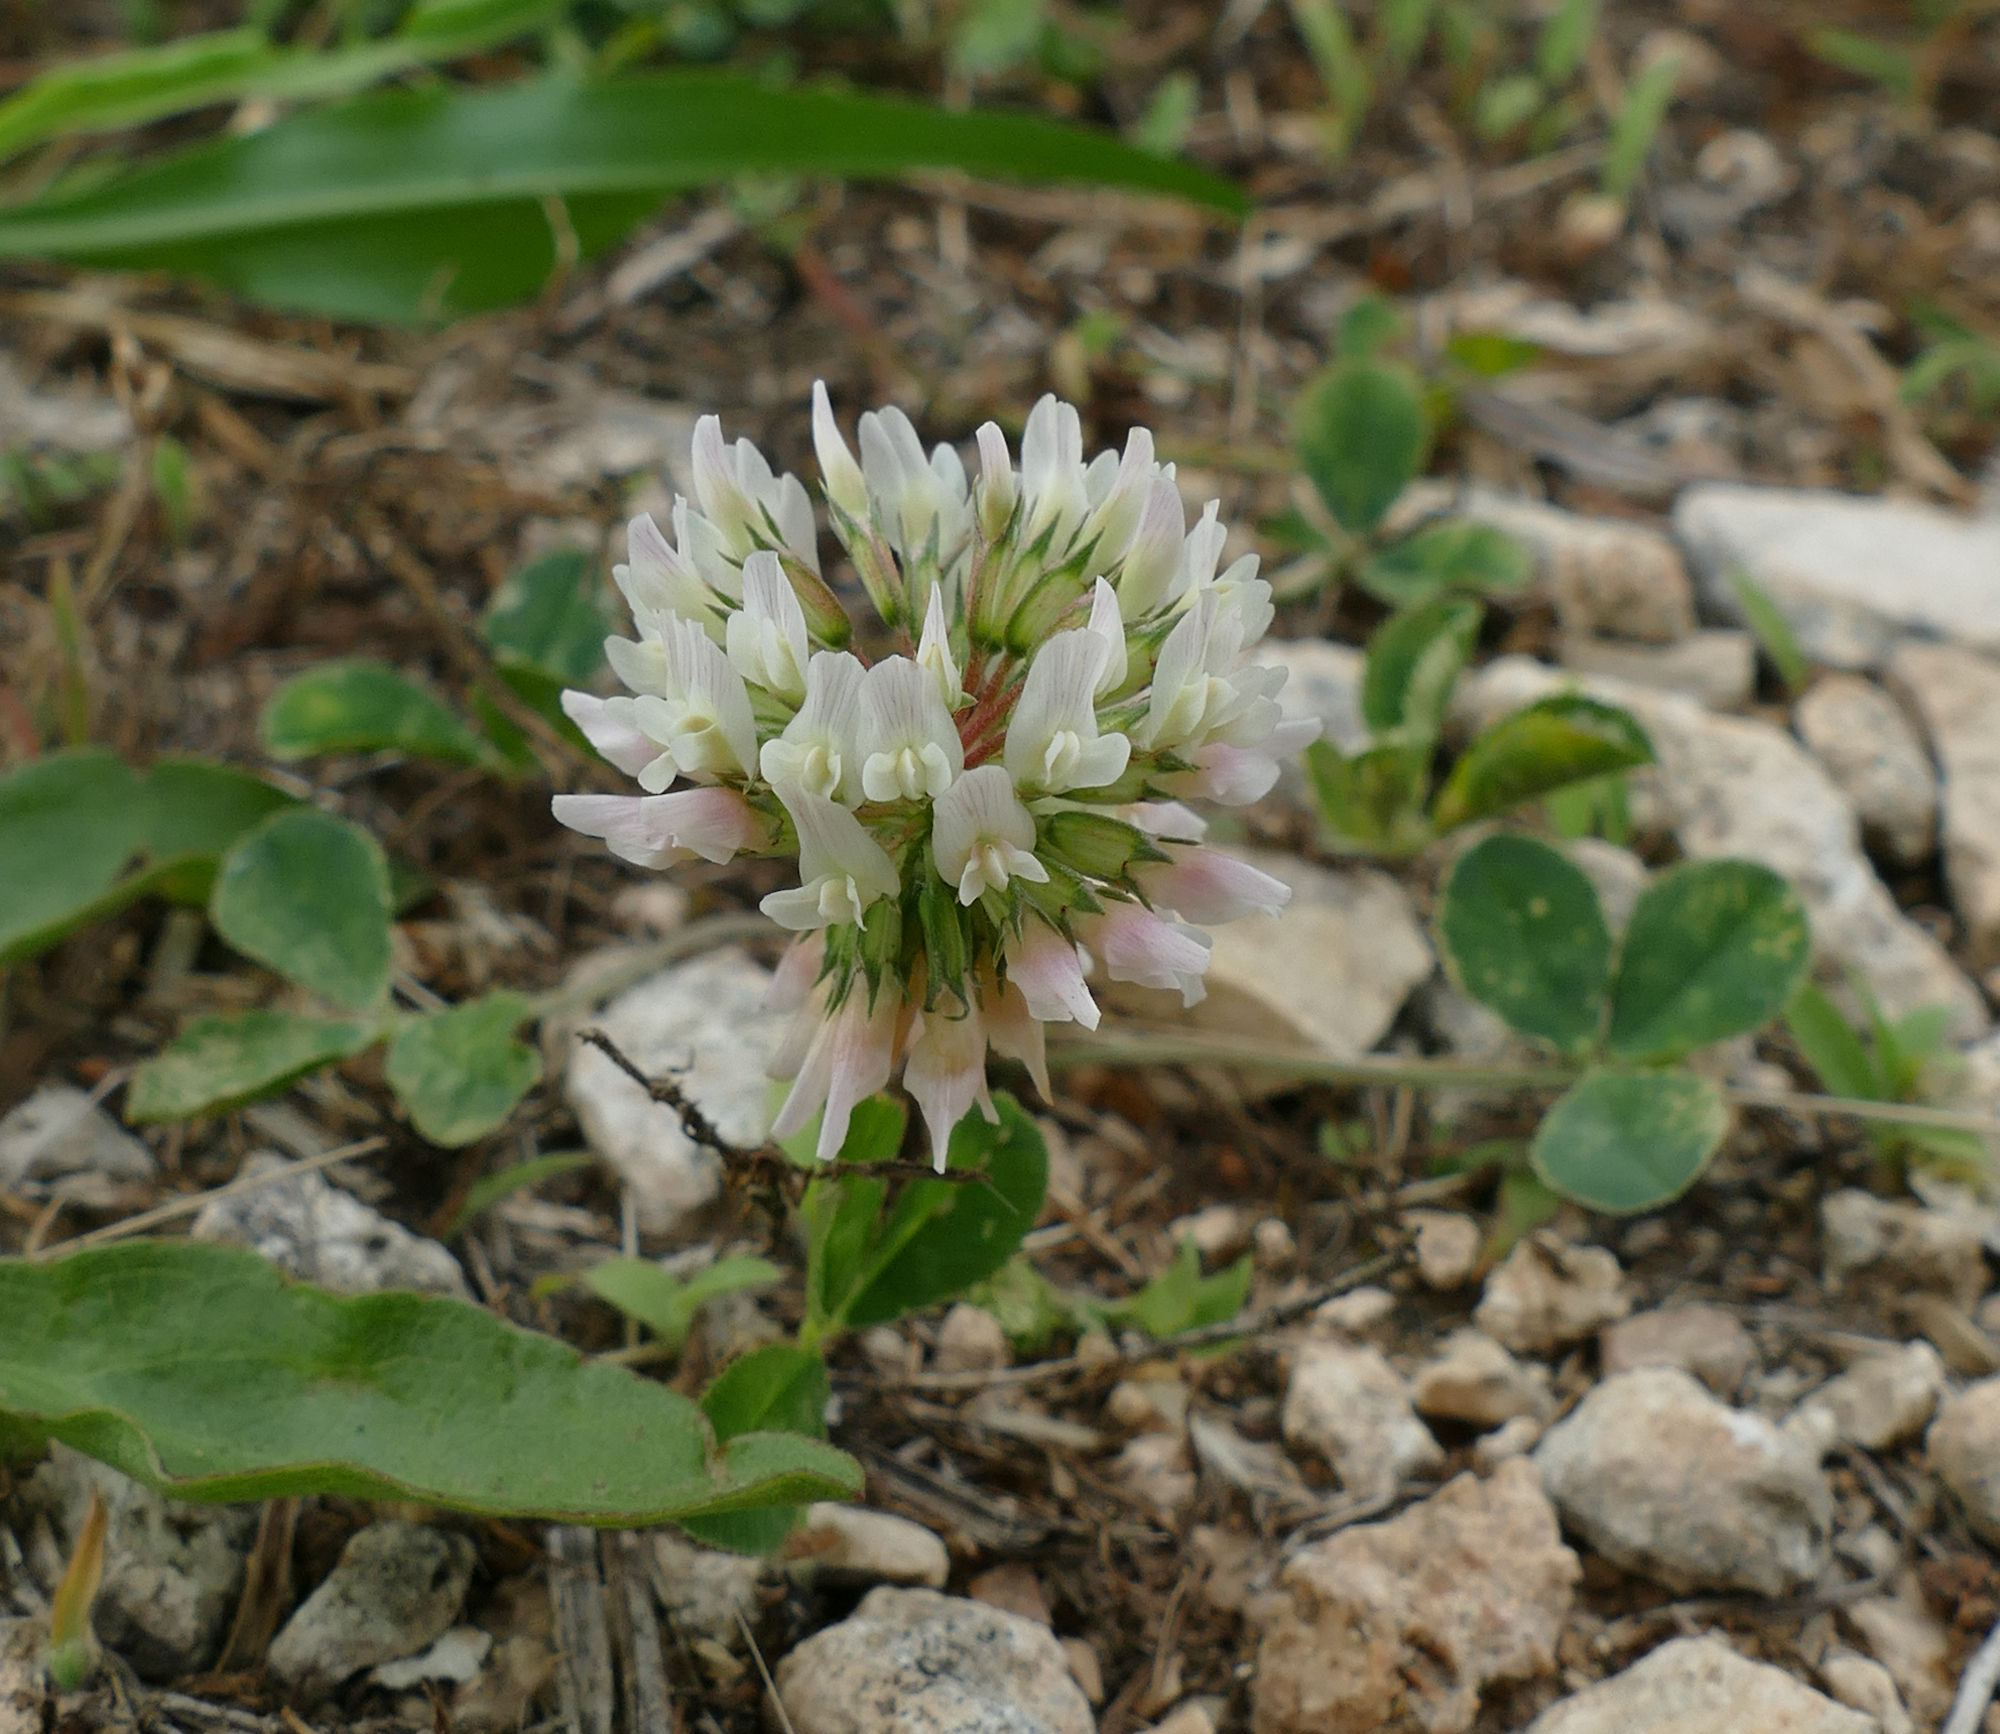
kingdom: Plantae
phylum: Tracheophyta
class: Magnoliopsida
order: Fabales
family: Fabaceae
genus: Trifolium
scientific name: Trifolium repens
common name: White clover
